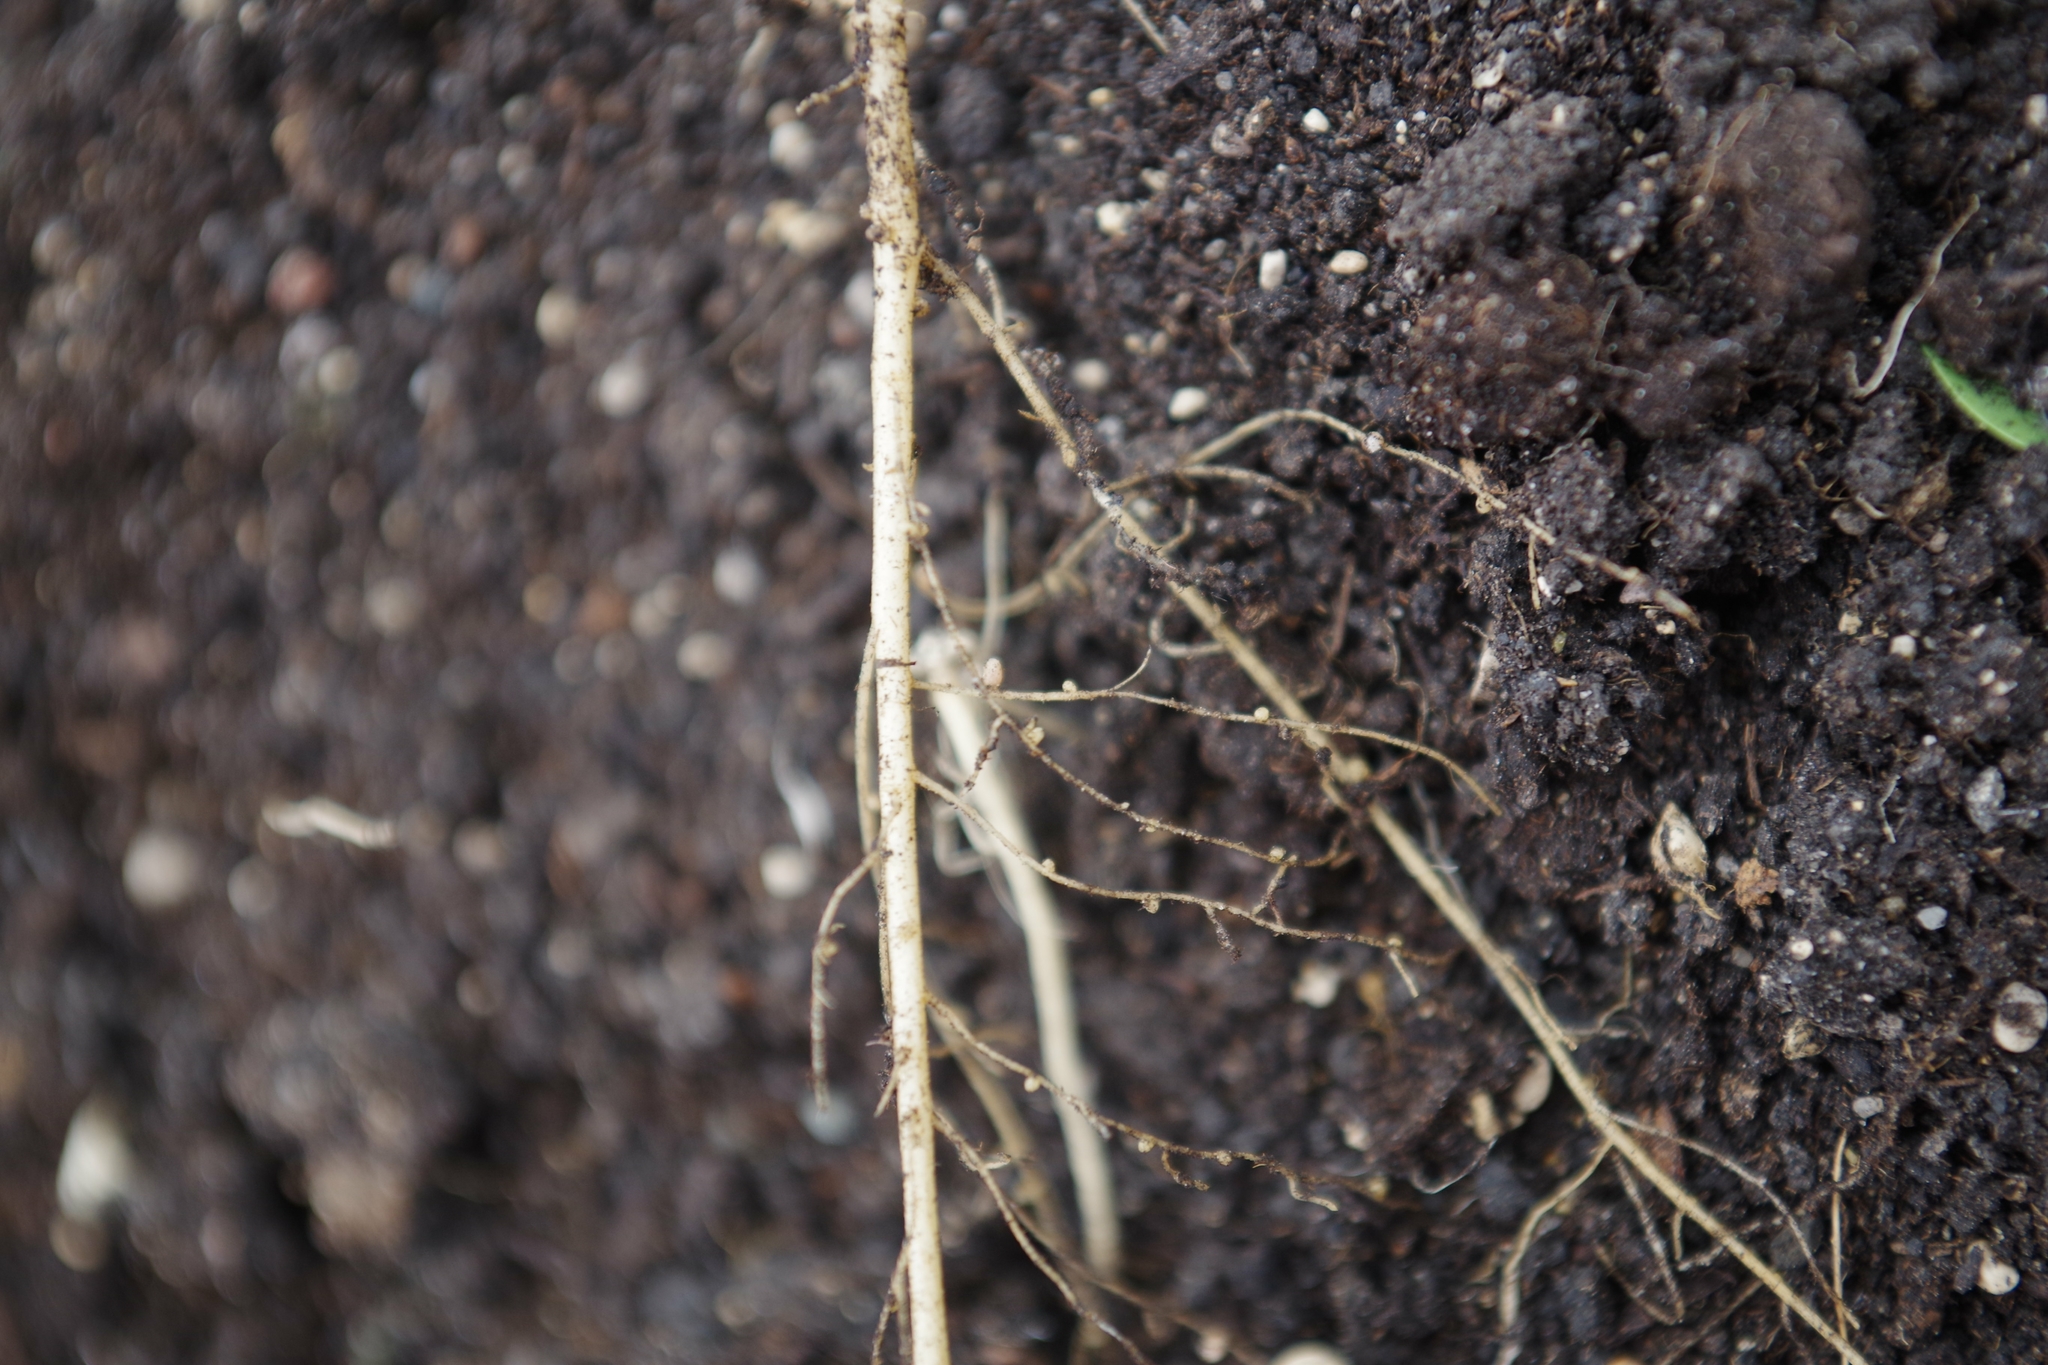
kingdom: Plantae
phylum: Tracheophyta
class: Magnoliopsida
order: Fabales
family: Fabaceae
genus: Medicago
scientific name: Medicago lupulina
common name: Black medick
